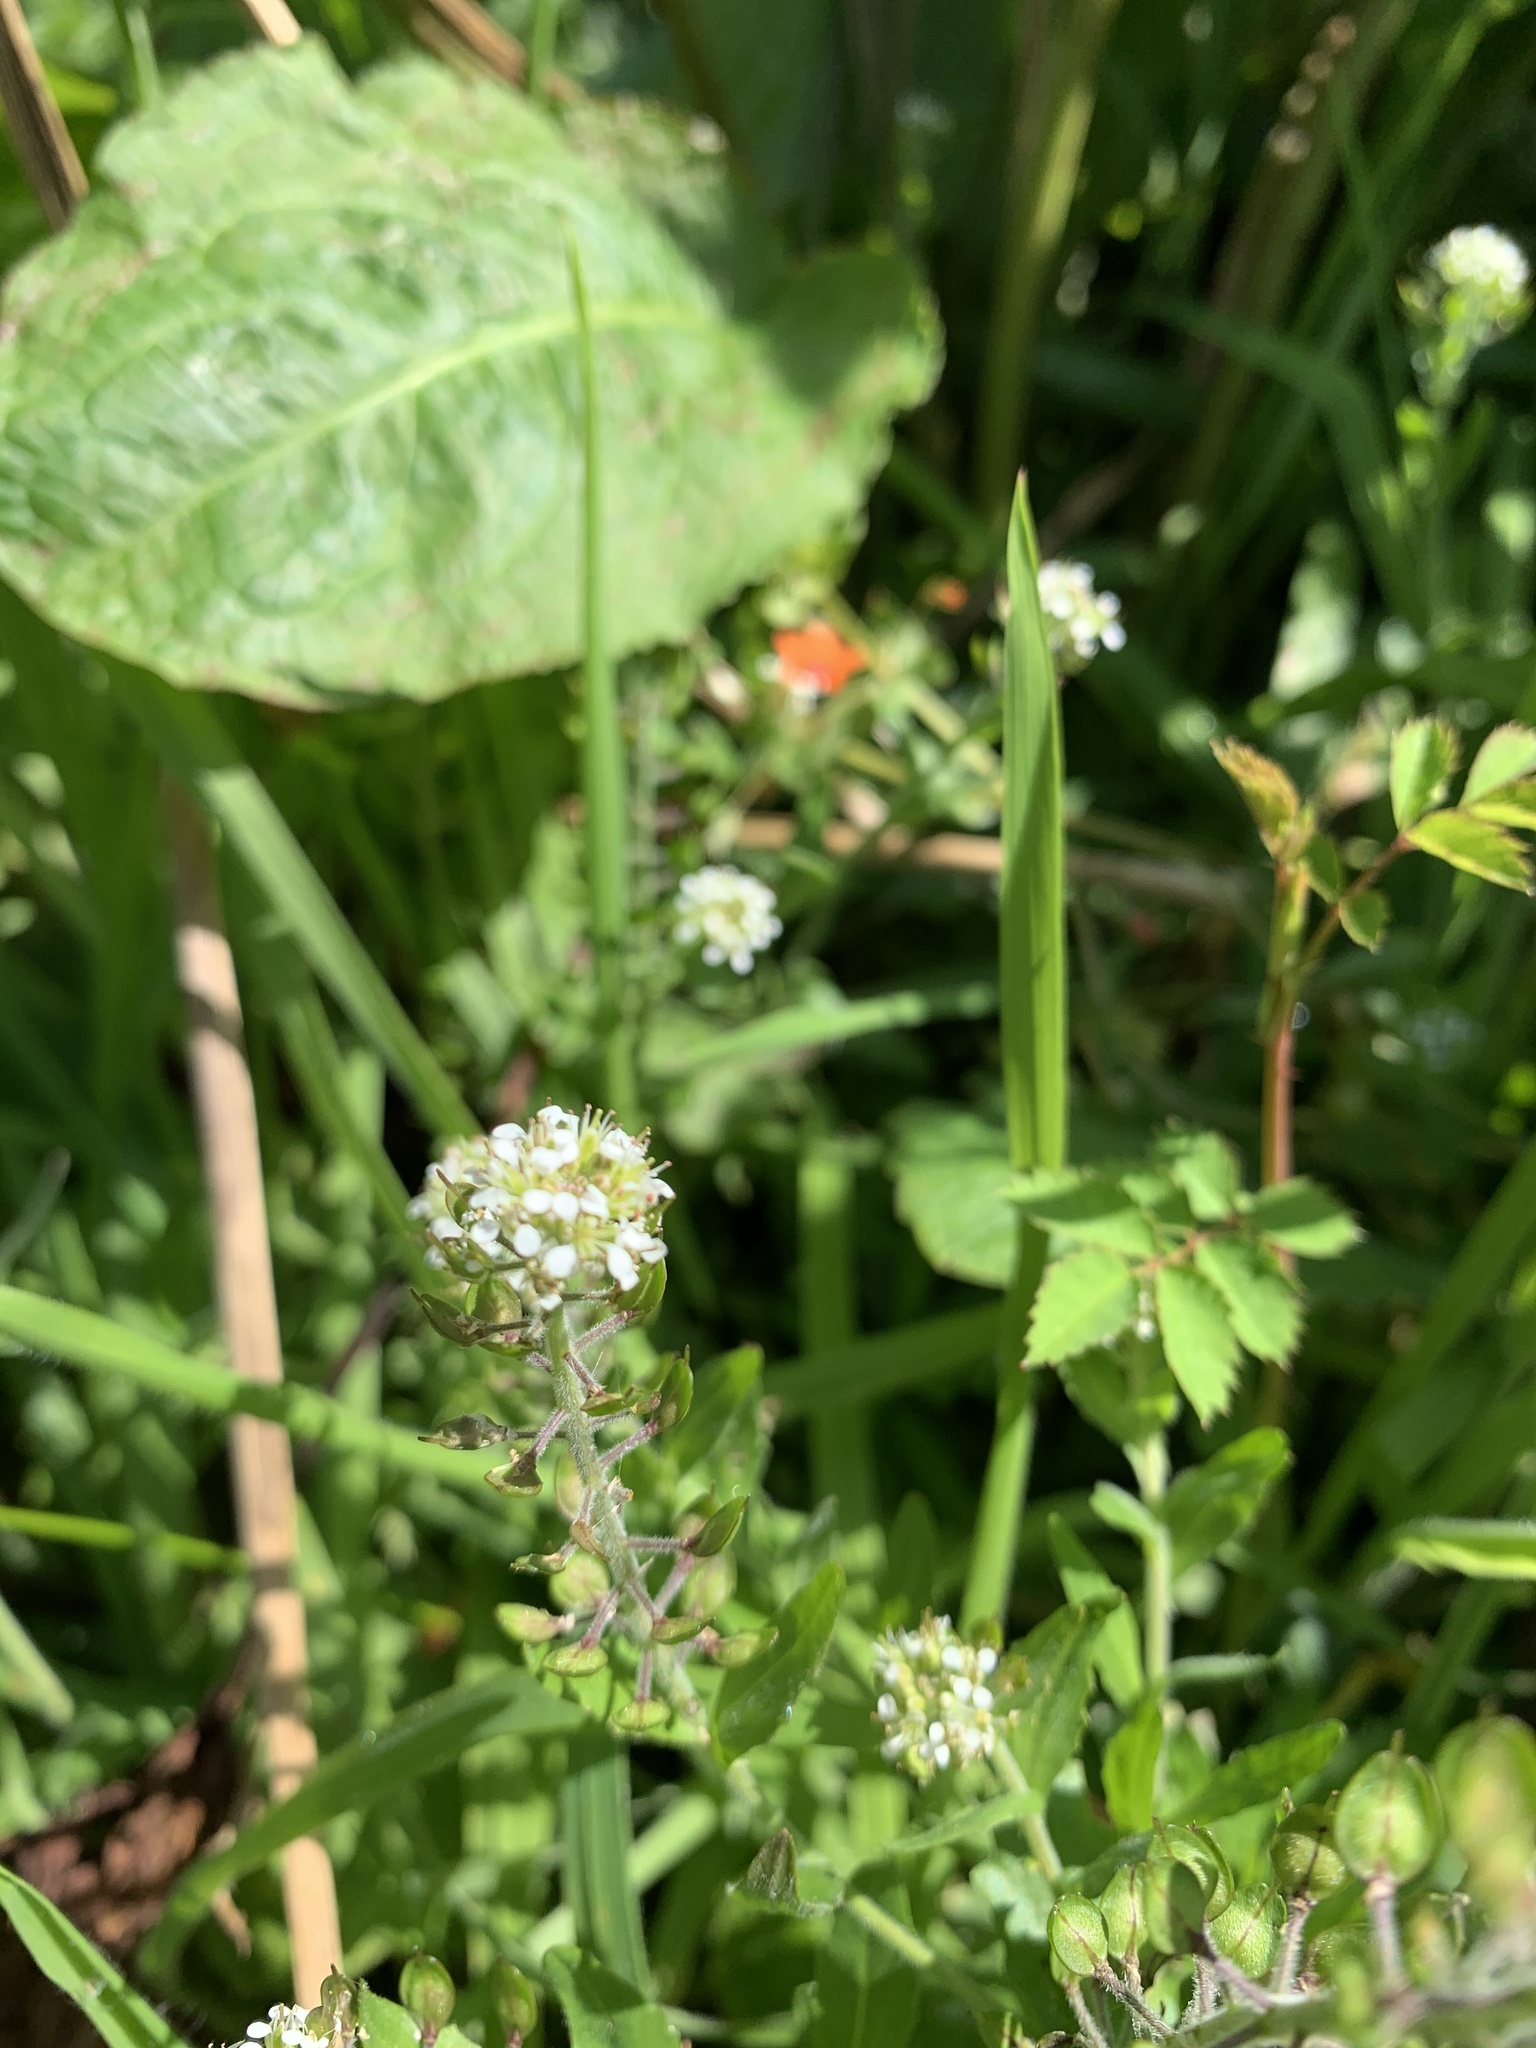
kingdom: Plantae
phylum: Tracheophyta
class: Magnoliopsida
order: Brassicales
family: Brassicaceae
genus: Lepidium
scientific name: Lepidium heterophyllum
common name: Smith's pepperwort
